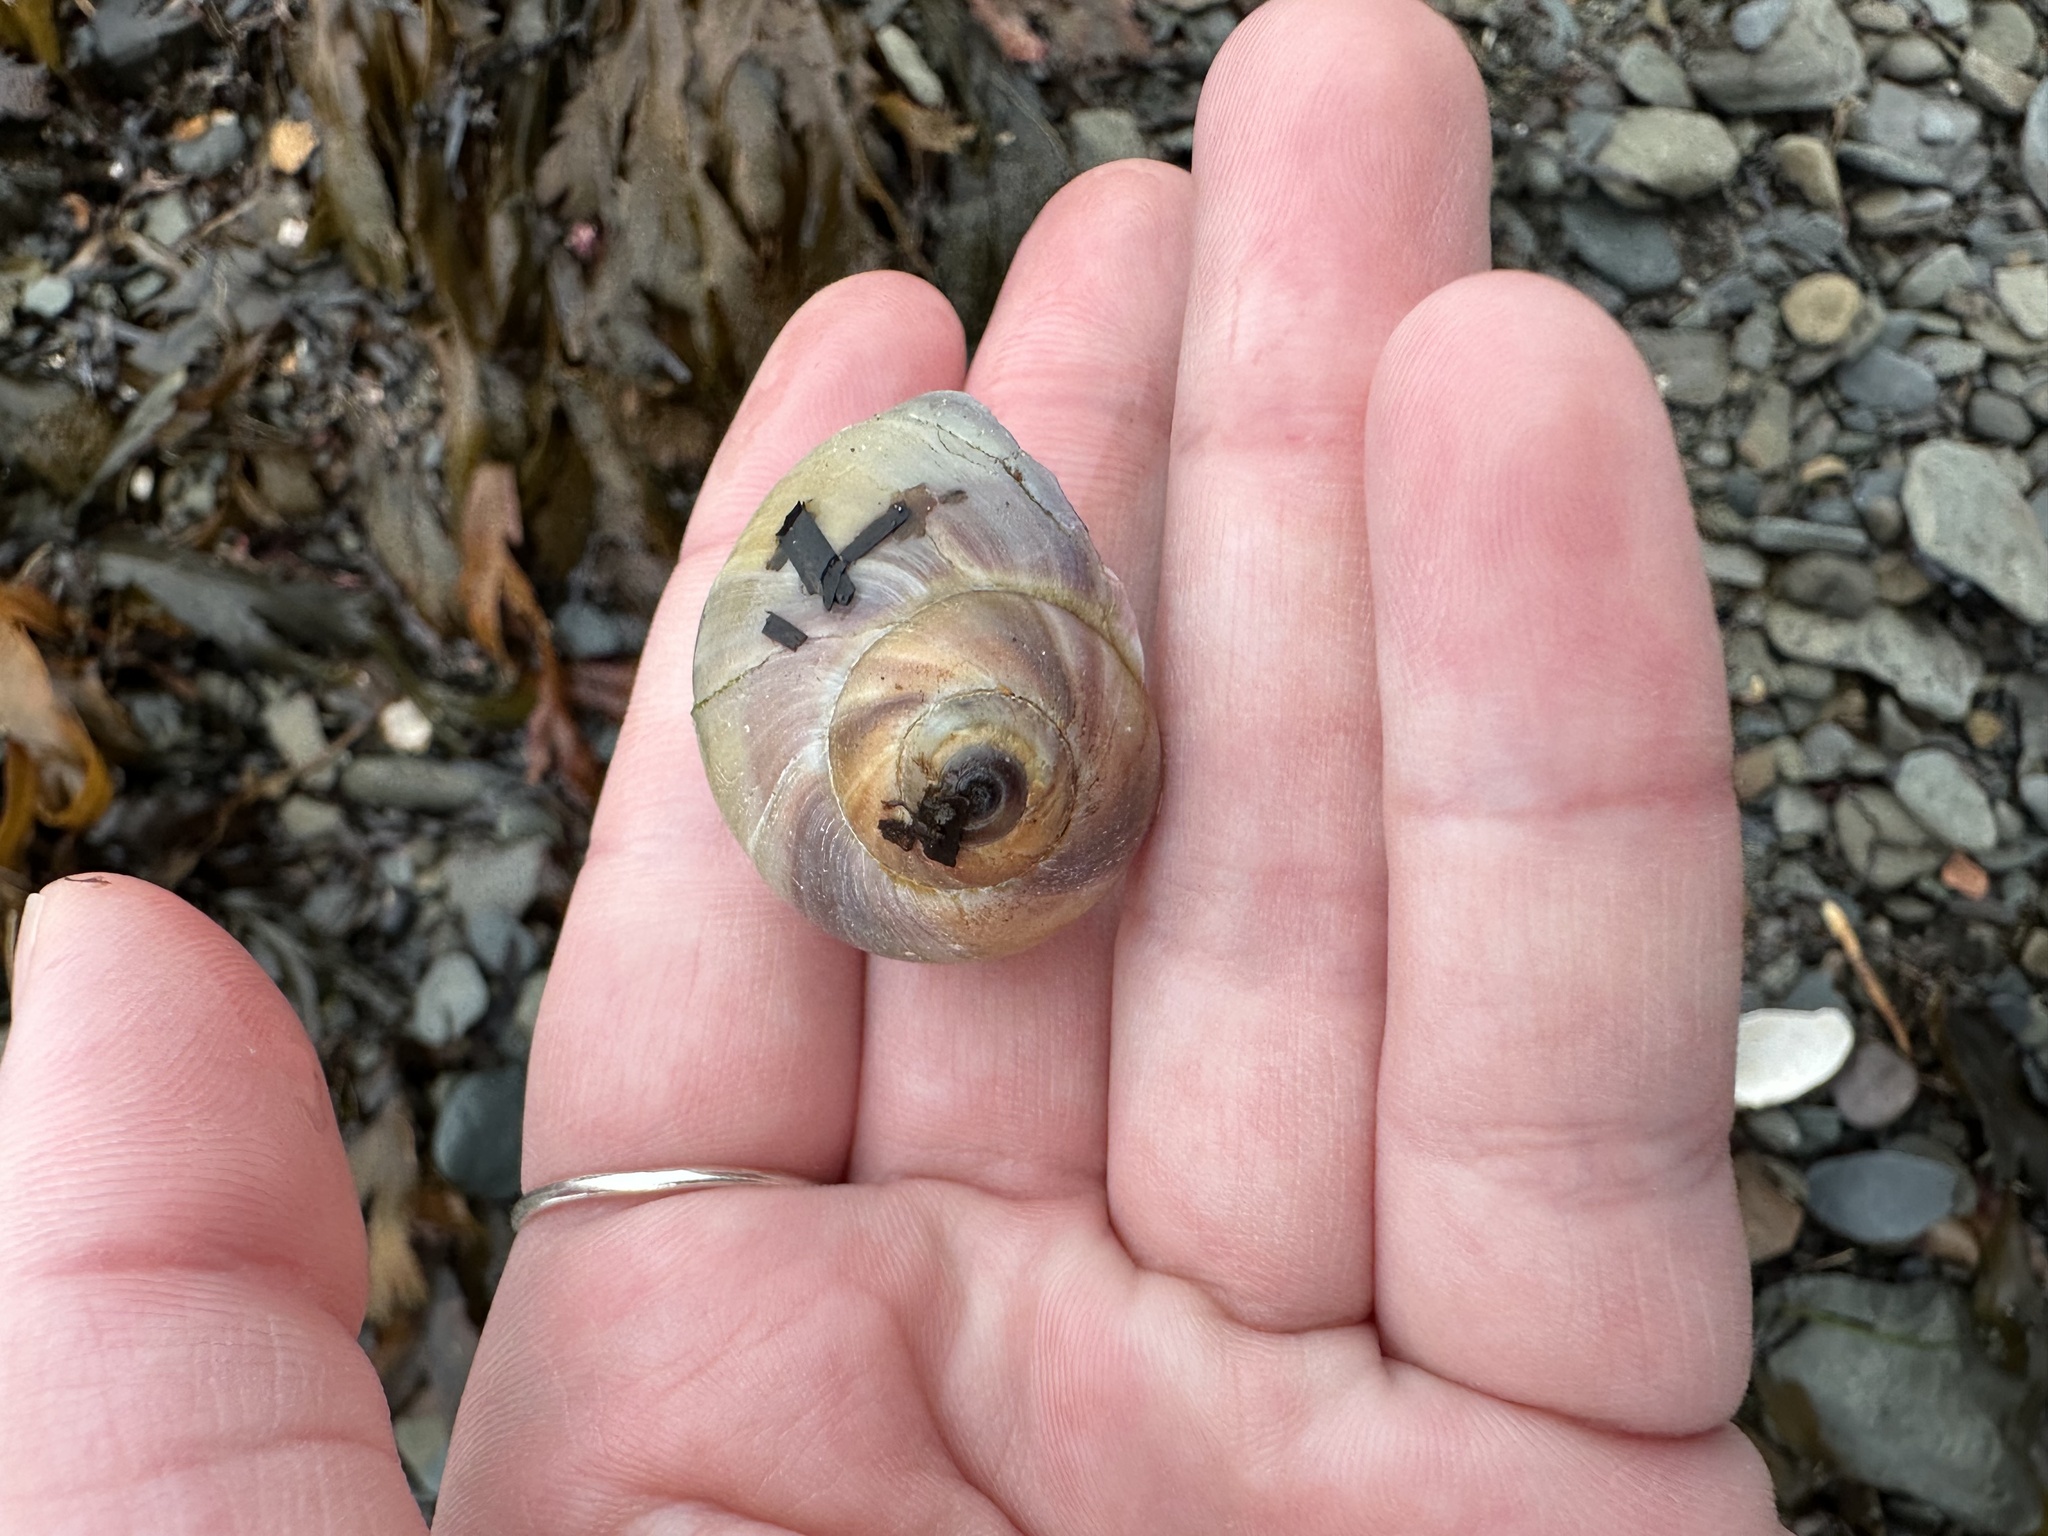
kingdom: Animalia
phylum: Mollusca
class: Gastropoda
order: Littorinimorpha
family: Naticidae
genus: Euspira
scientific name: Euspira heros
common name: Common northern moonsnail
